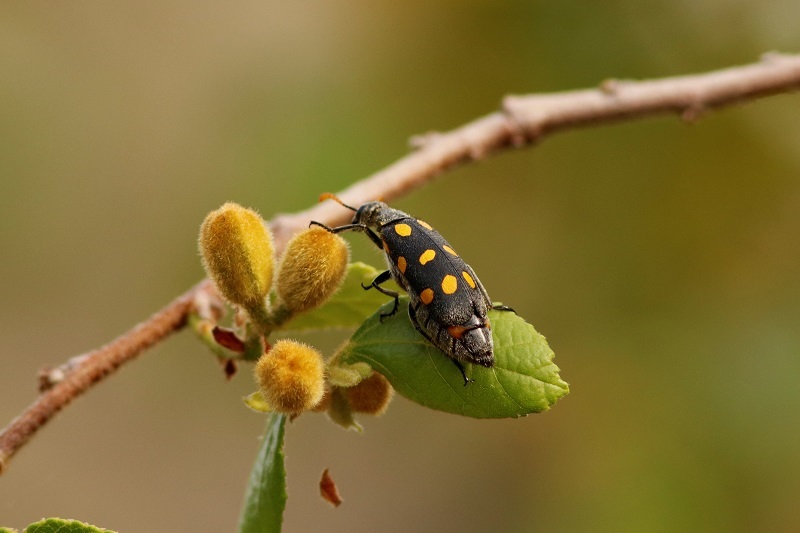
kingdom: Animalia
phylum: Arthropoda
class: Insecta
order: Coleoptera
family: Meloidae
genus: Hycleus
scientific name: Hycleus lugens
